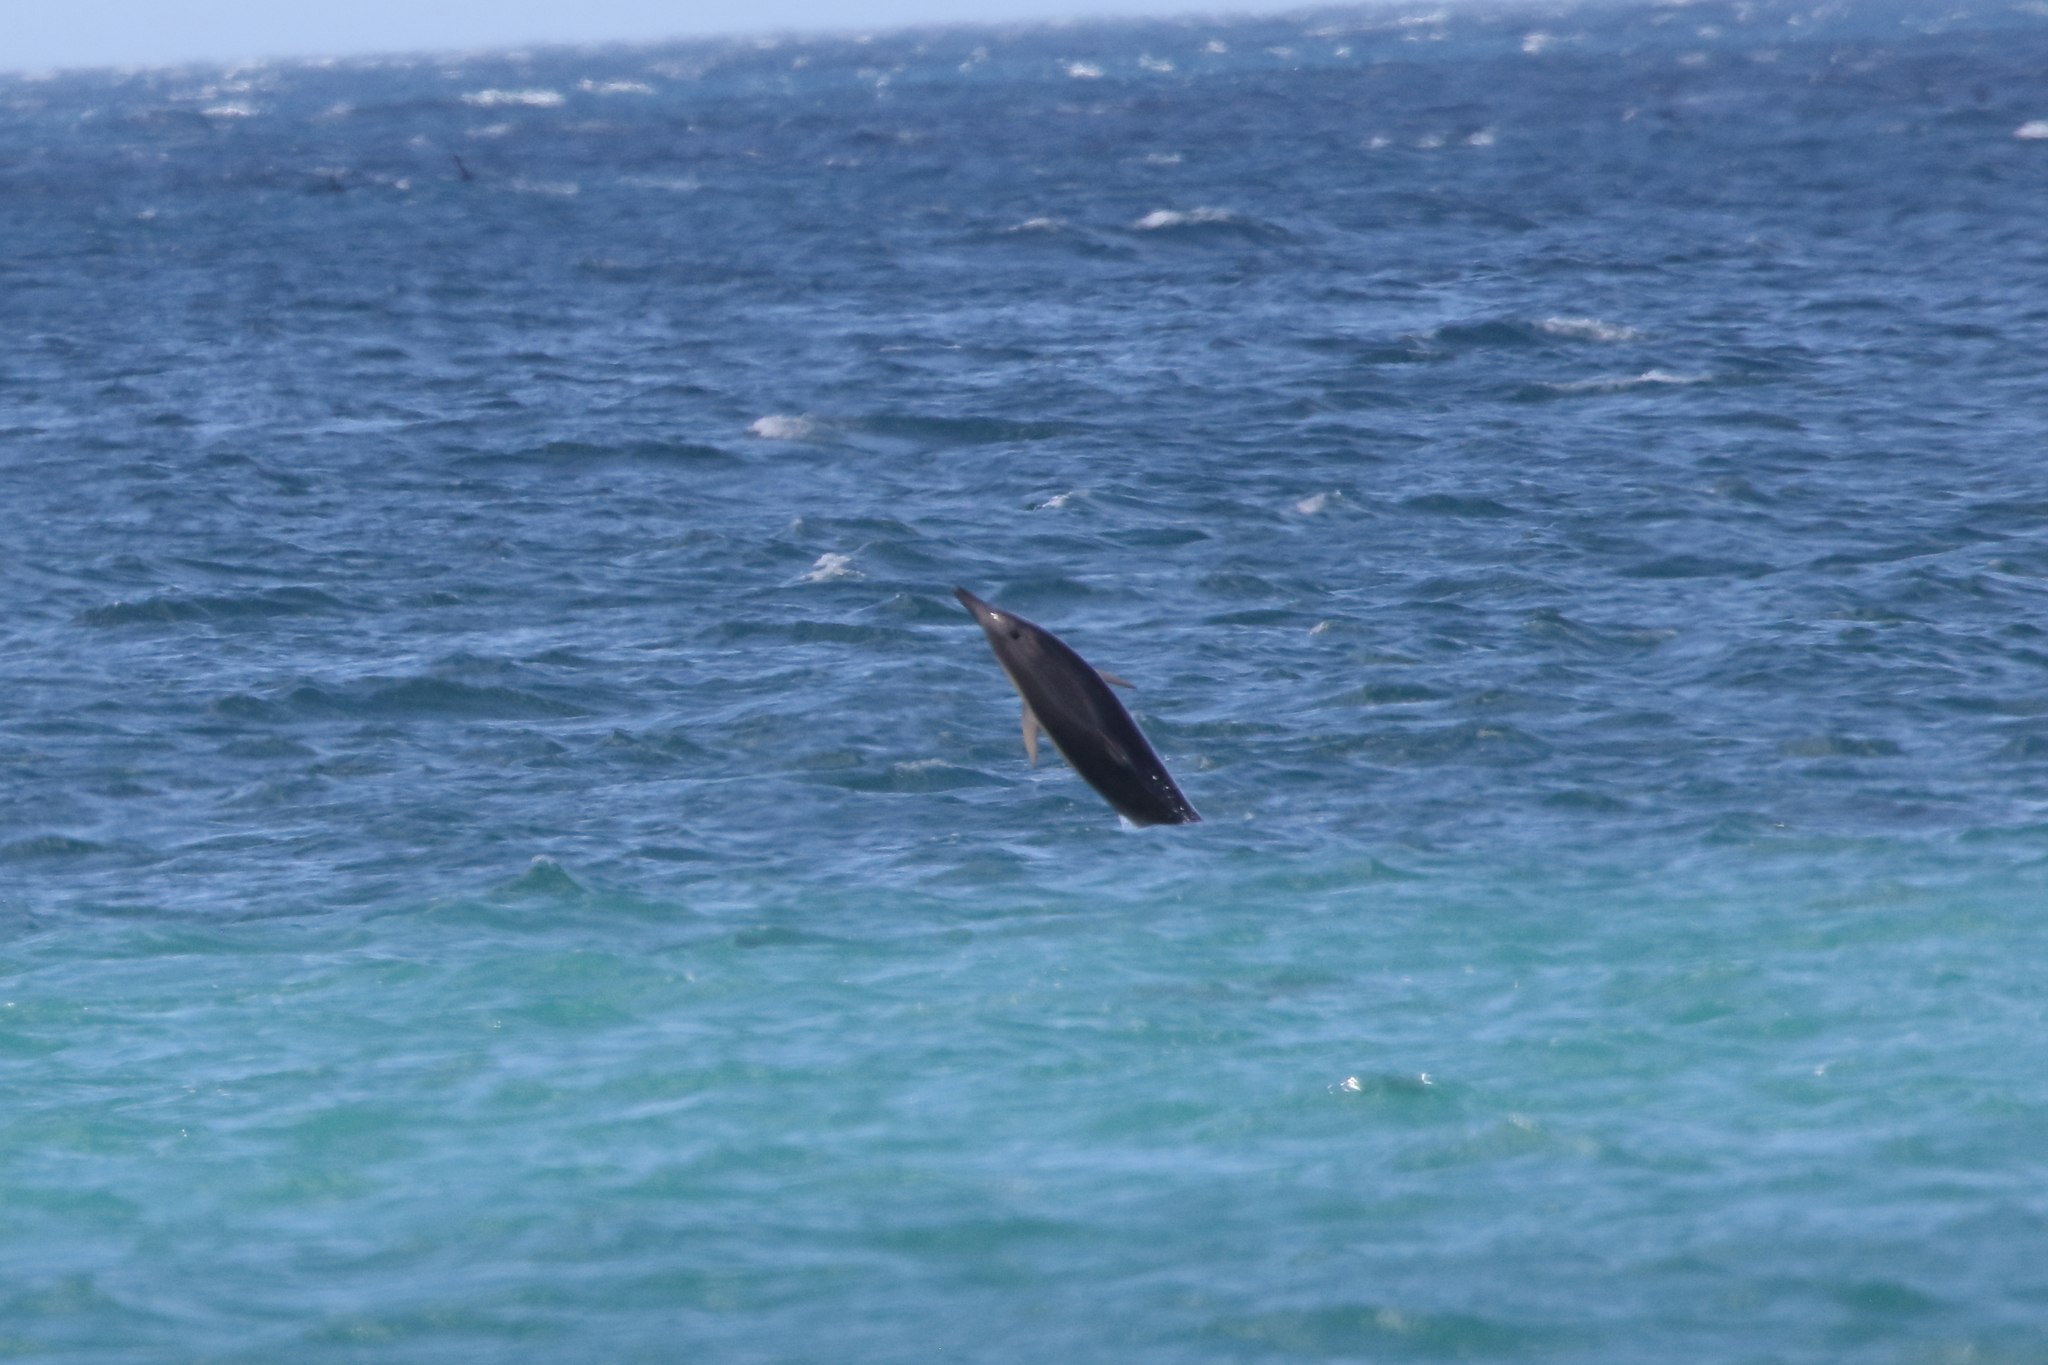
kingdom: Animalia
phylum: Chordata
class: Mammalia
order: Cetacea
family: Delphinidae
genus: Delphinus
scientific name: Delphinus delphis
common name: Common dolphin
